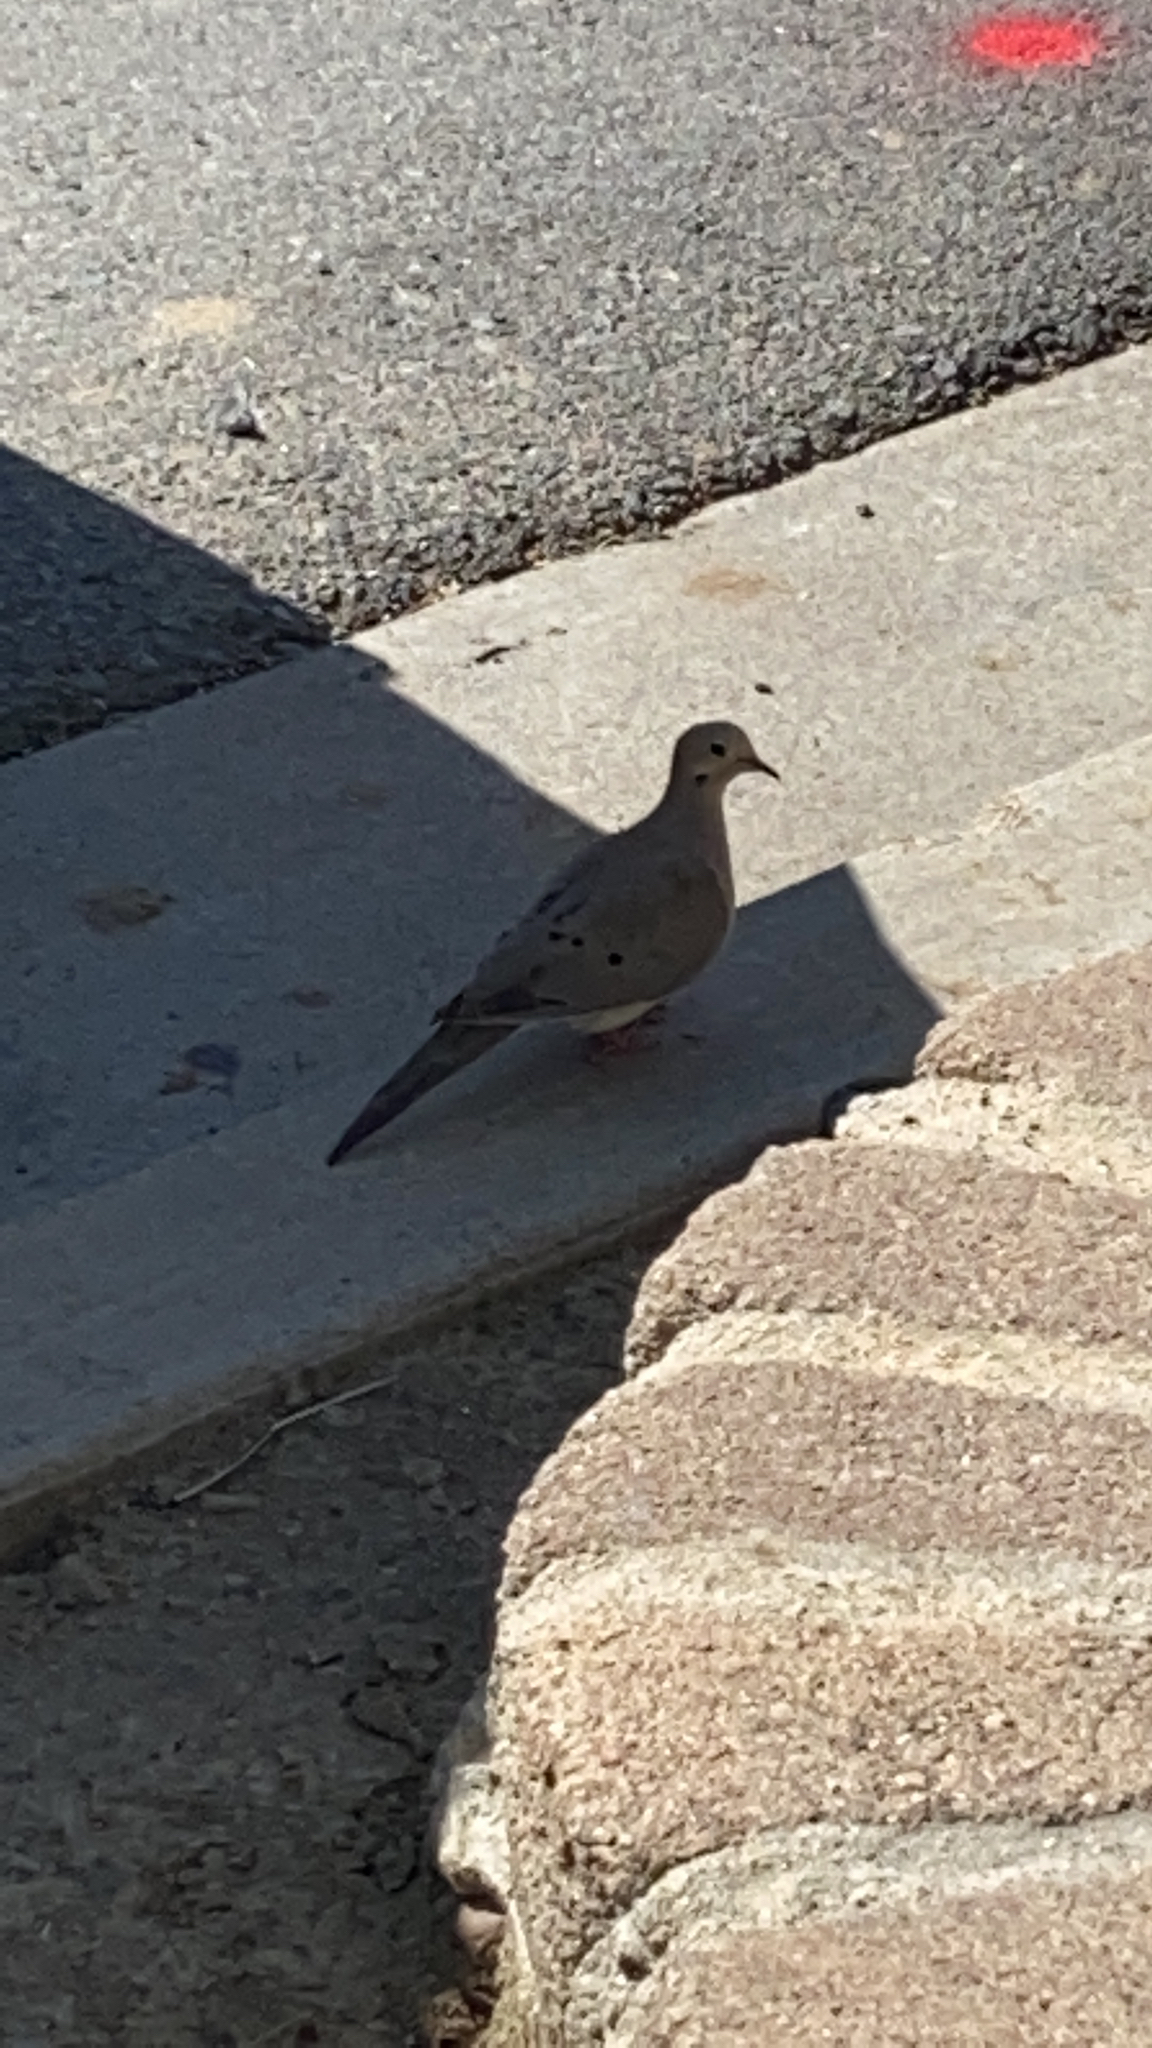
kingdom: Animalia
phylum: Chordata
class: Aves
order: Columbiformes
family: Columbidae
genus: Zenaida
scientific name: Zenaida macroura
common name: Mourning dove
